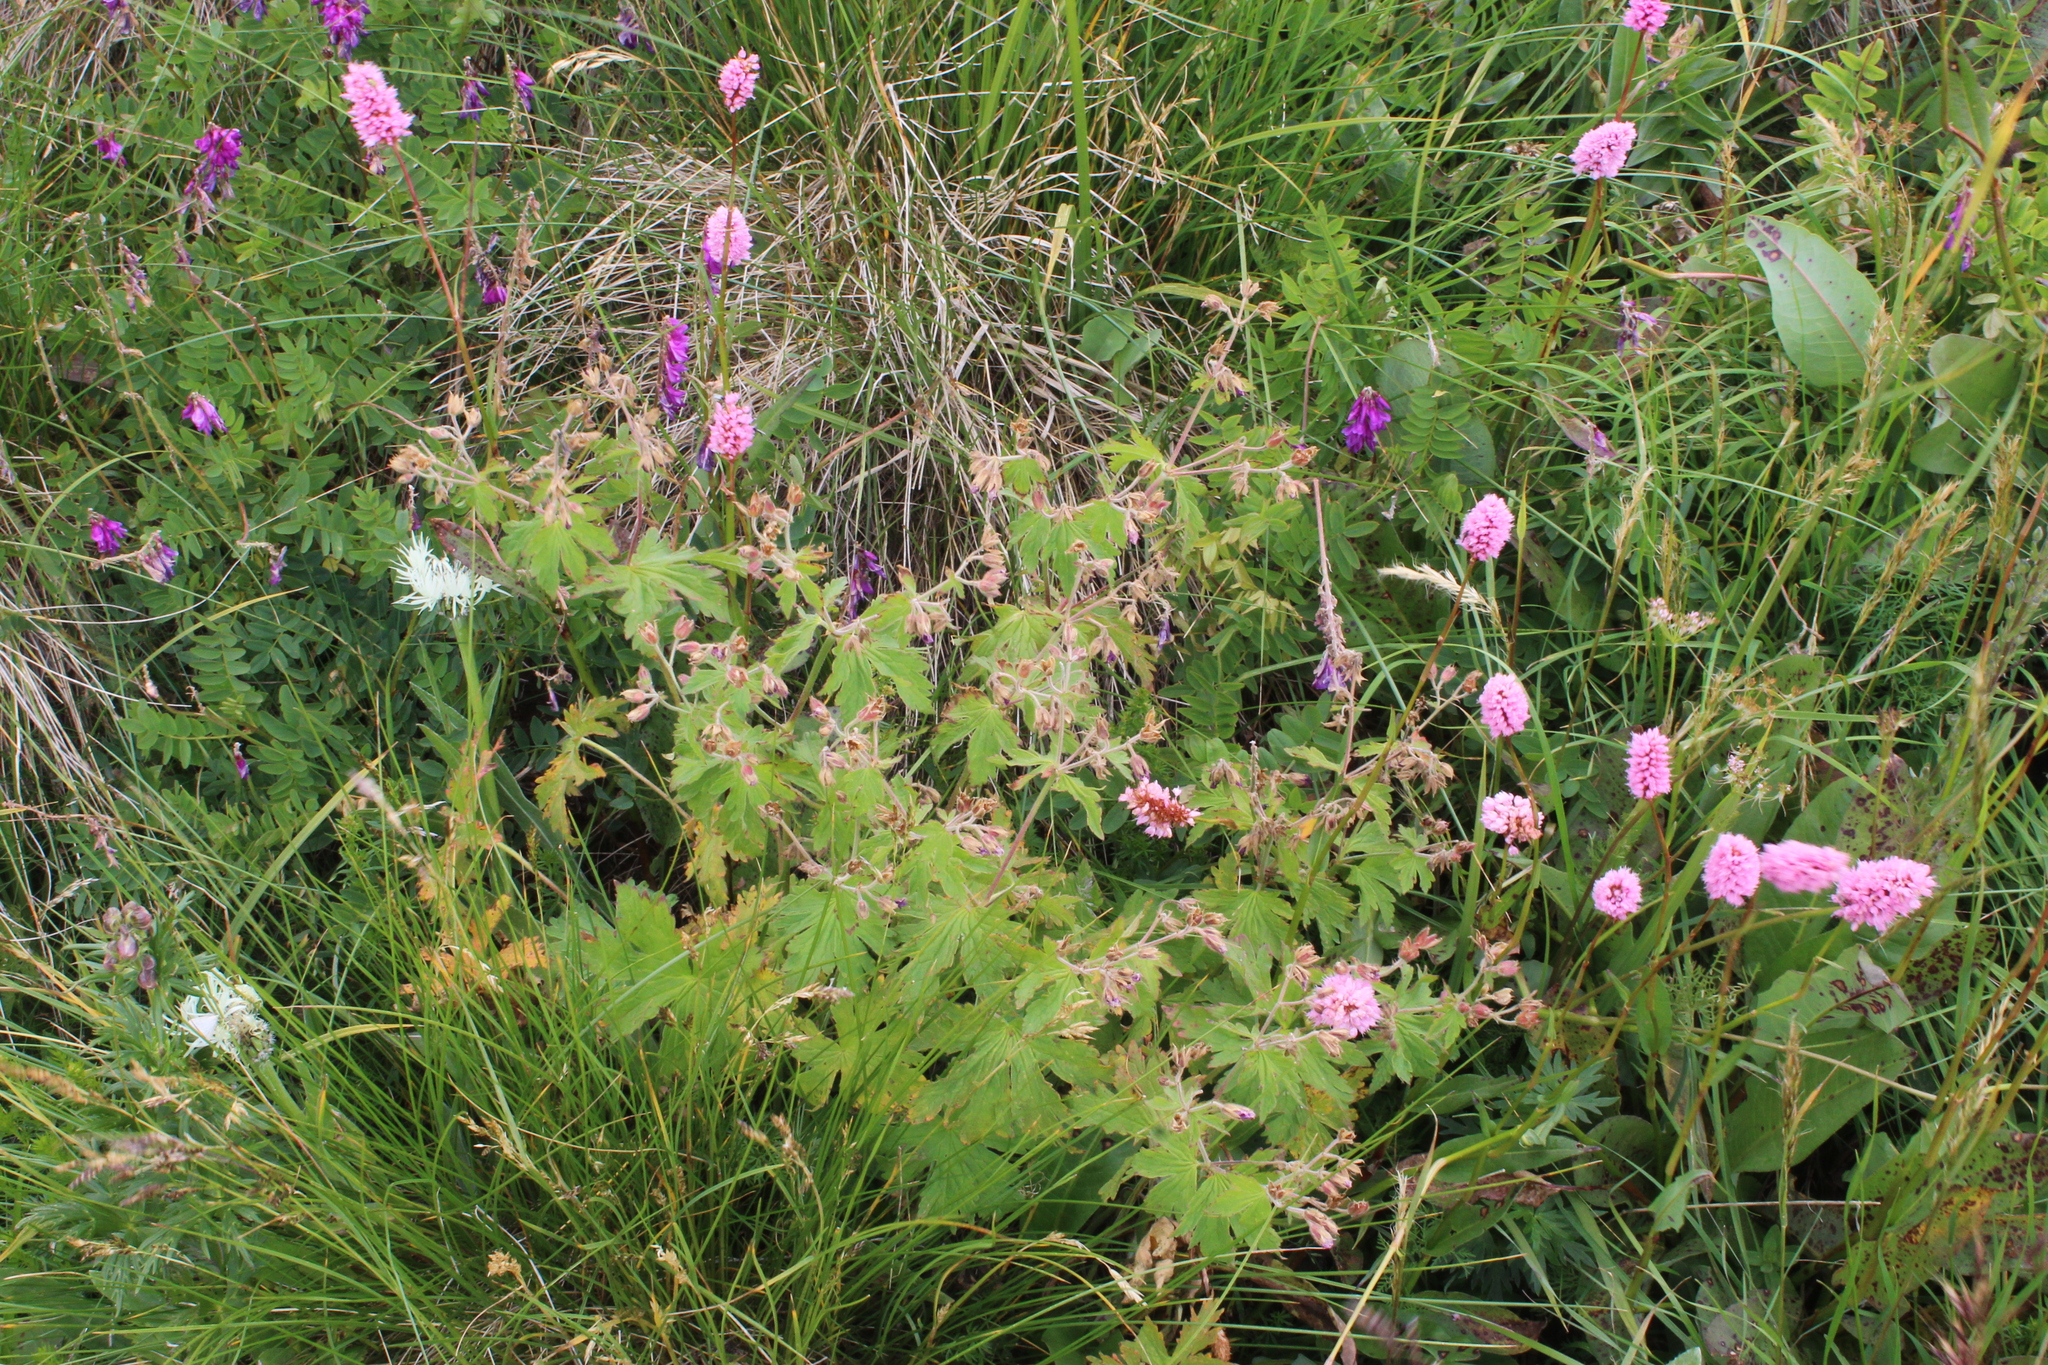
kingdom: Plantae
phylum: Tracheophyta
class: Magnoliopsida
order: Geraniales
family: Geraniaceae
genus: Geranium
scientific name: Geranium sylvaticum
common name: Wood crane's-bill
